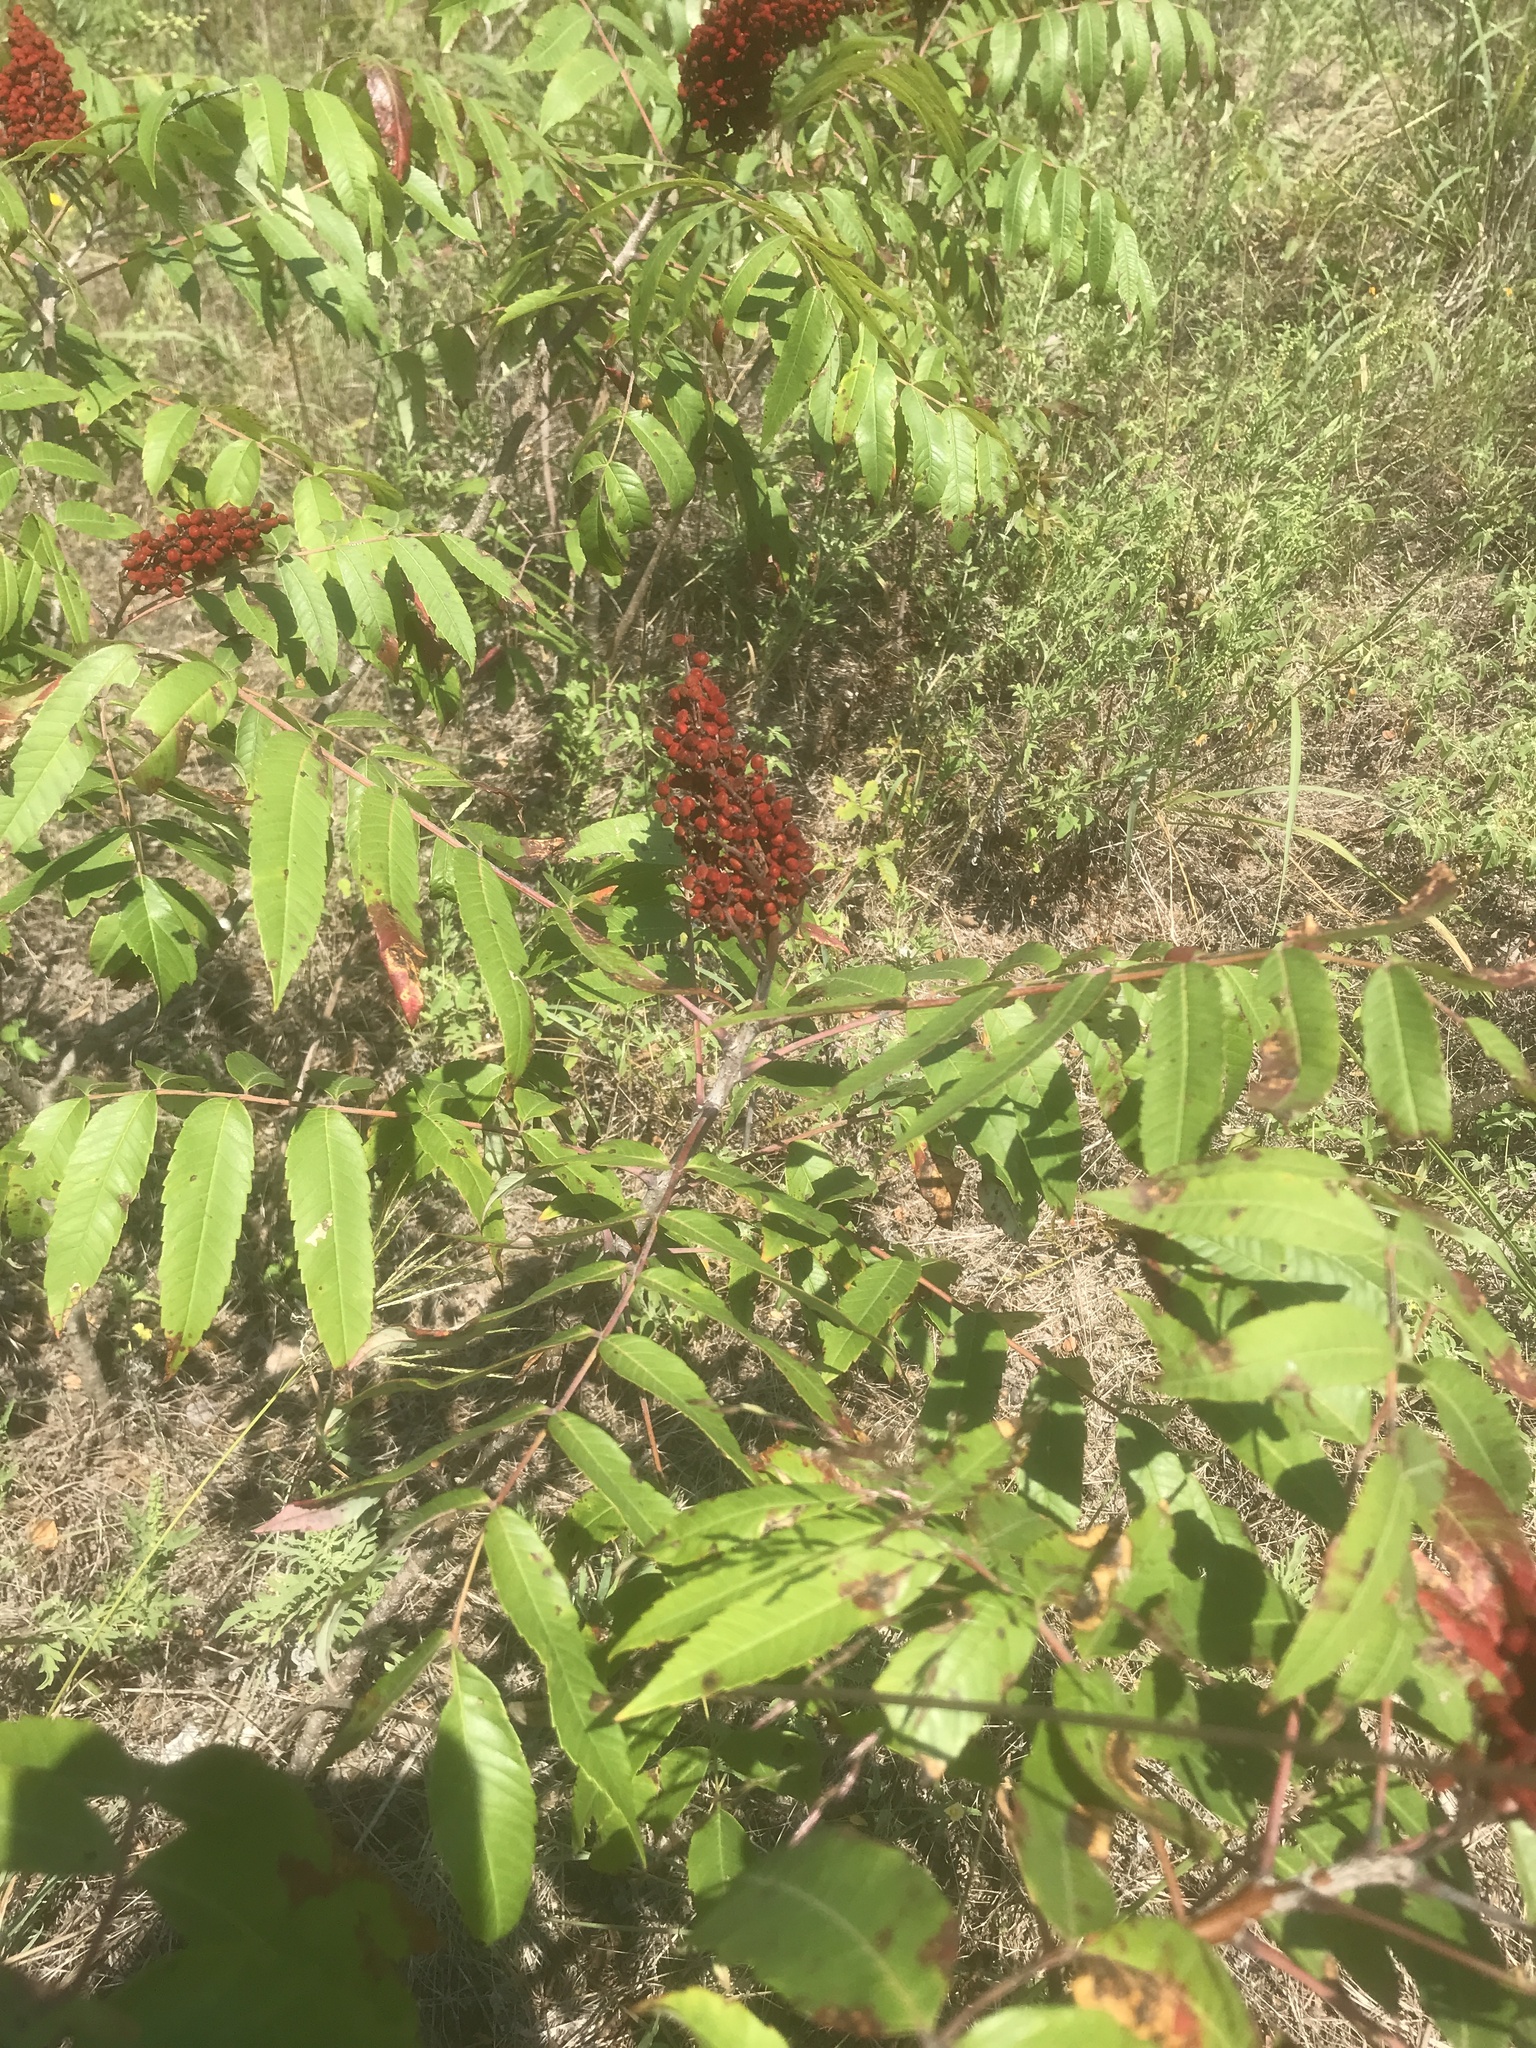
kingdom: Plantae
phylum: Tracheophyta
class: Magnoliopsida
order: Sapindales
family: Anacardiaceae
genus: Rhus
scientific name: Rhus glabra
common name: Scarlet sumac
